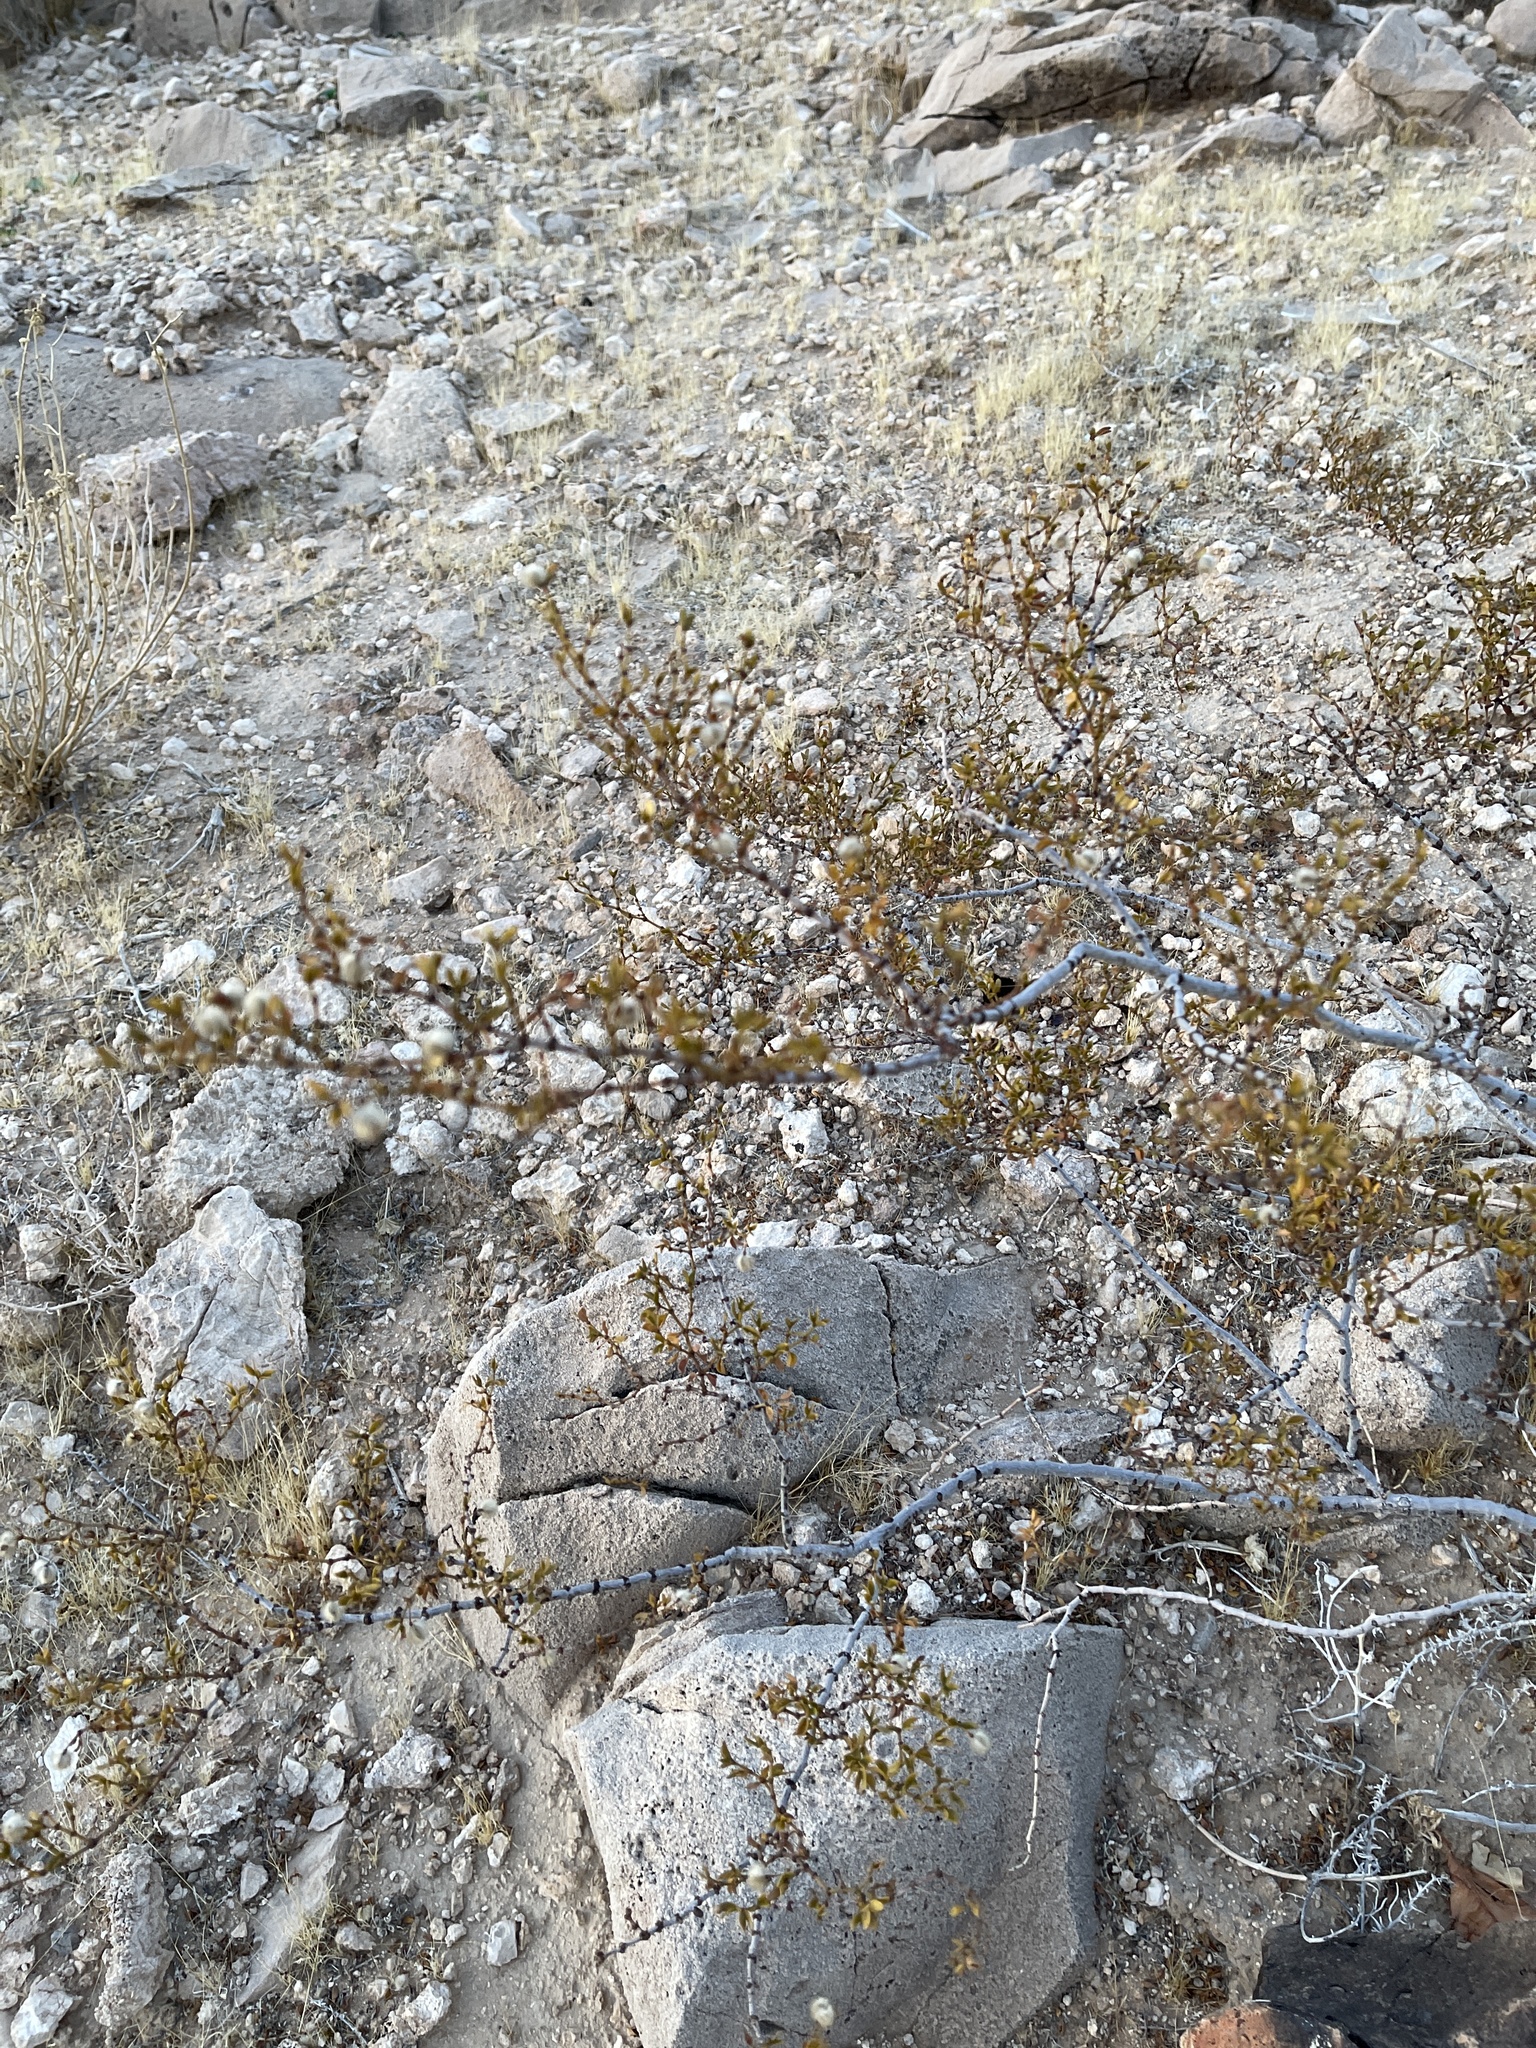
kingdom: Plantae
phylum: Tracheophyta
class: Magnoliopsida
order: Zygophyllales
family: Zygophyllaceae
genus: Larrea
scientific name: Larrea tridentata
